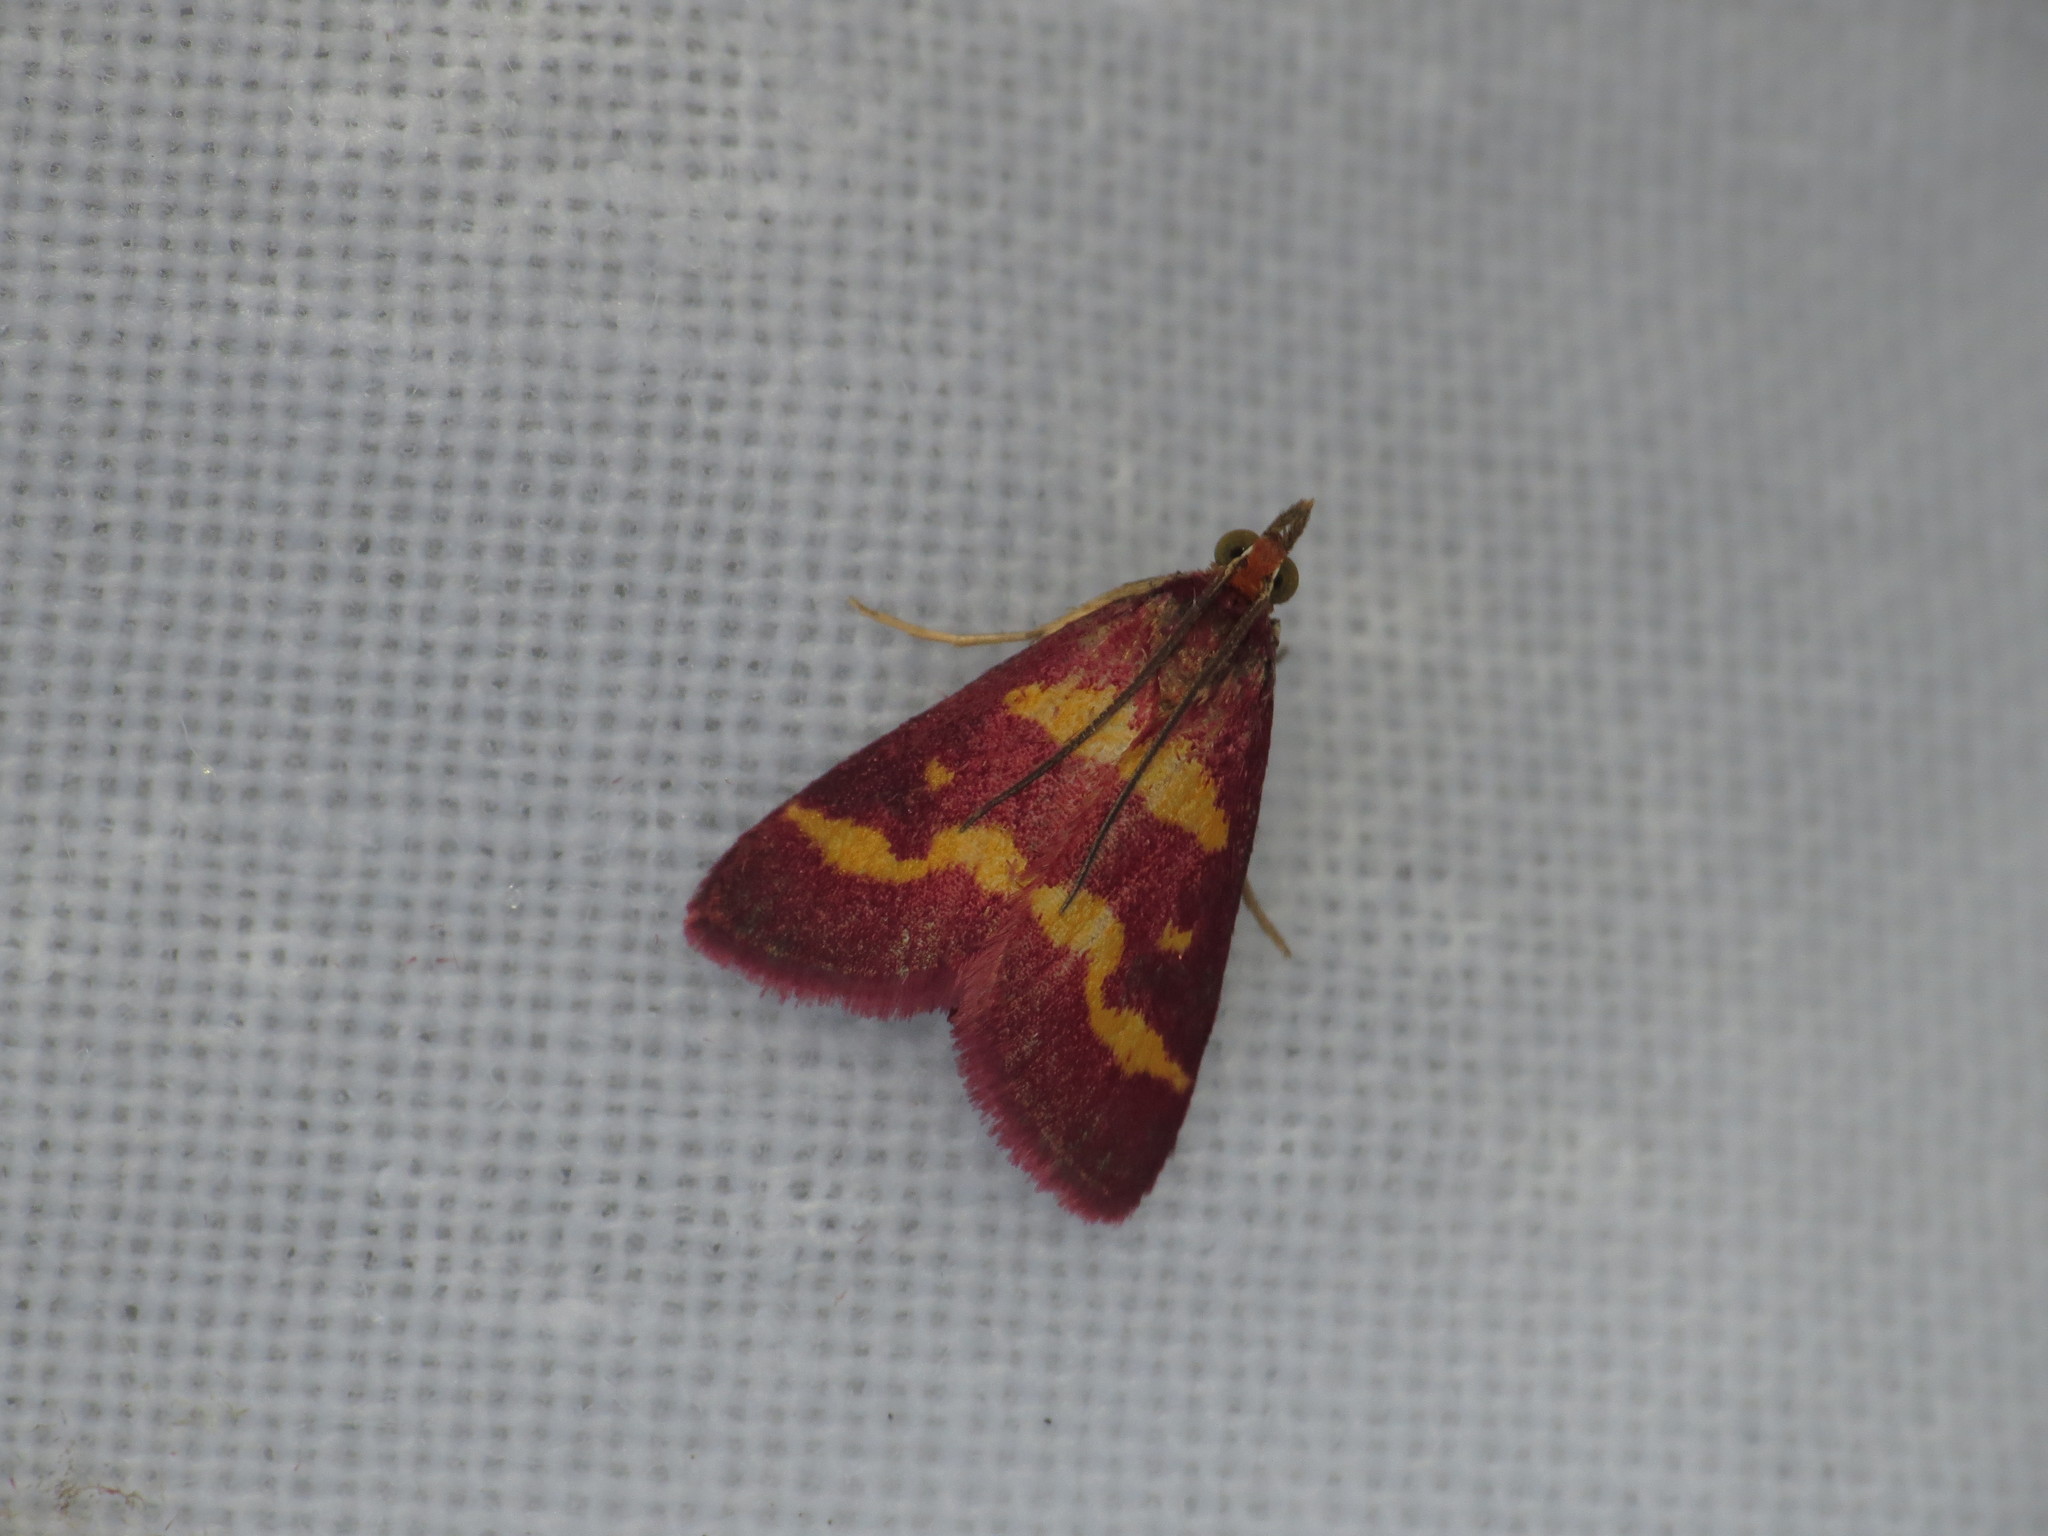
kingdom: Animalia
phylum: Arthropoda
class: Insecta
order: Lepidoptera
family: Crambidae
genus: Pyrausta
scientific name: Pyrausta tyralis
